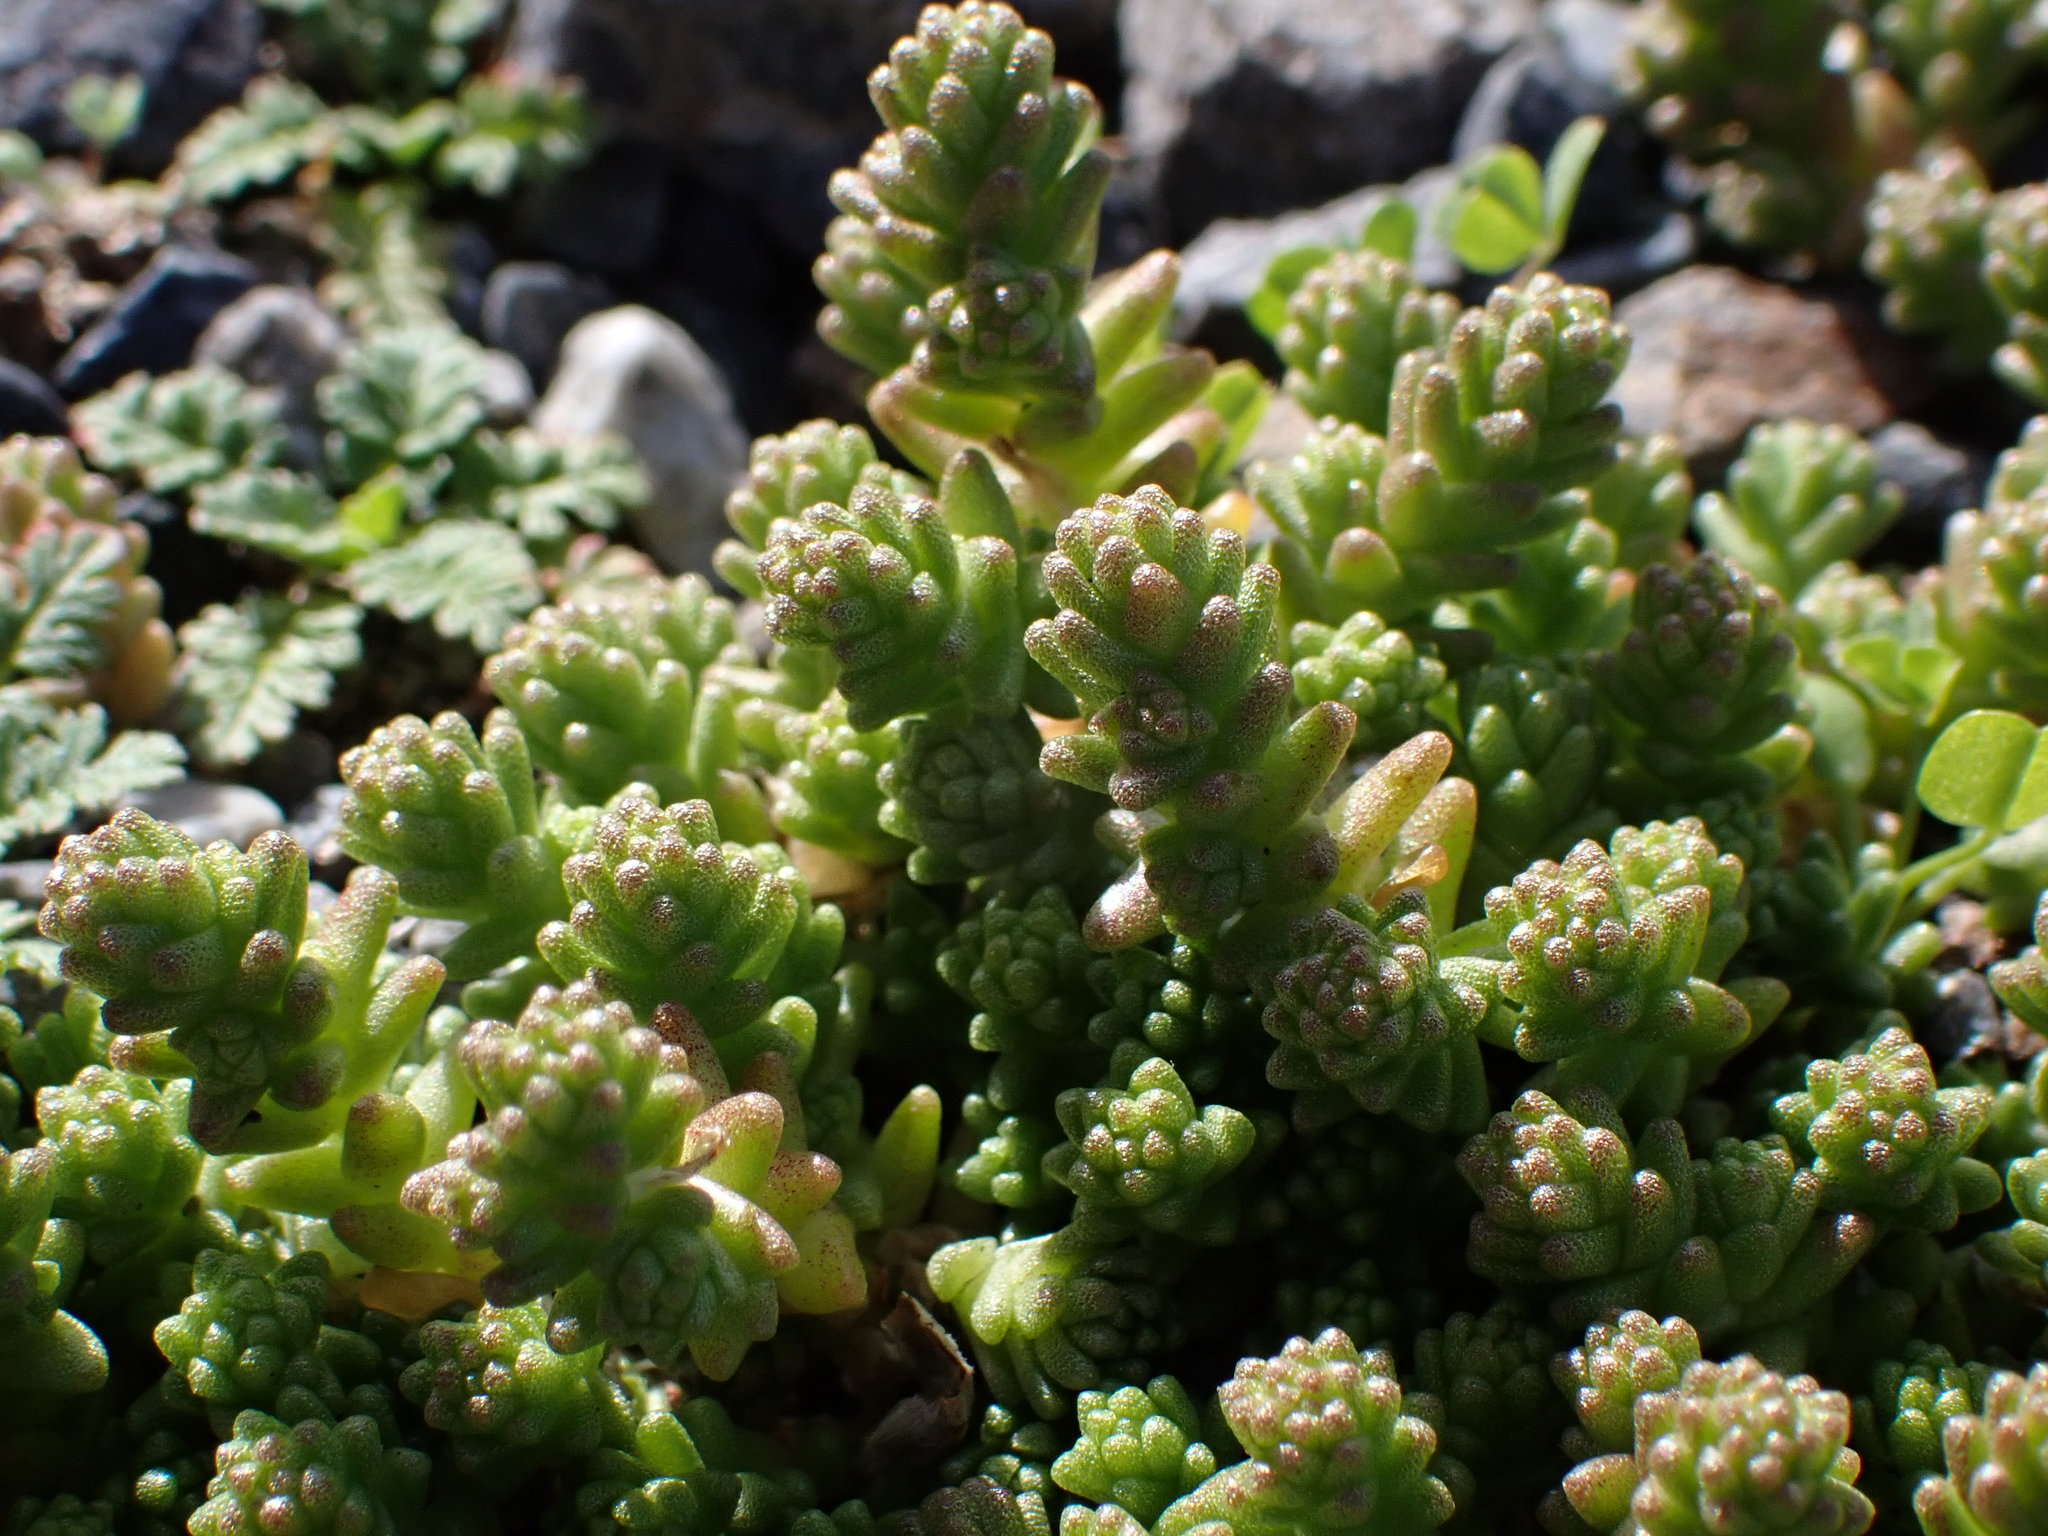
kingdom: Plantae
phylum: Tracheophyta
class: Magnoliopsida
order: Saxifragales
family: Crassulaceae
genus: Sedum
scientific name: Sedum acre
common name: Biting stonecrop
